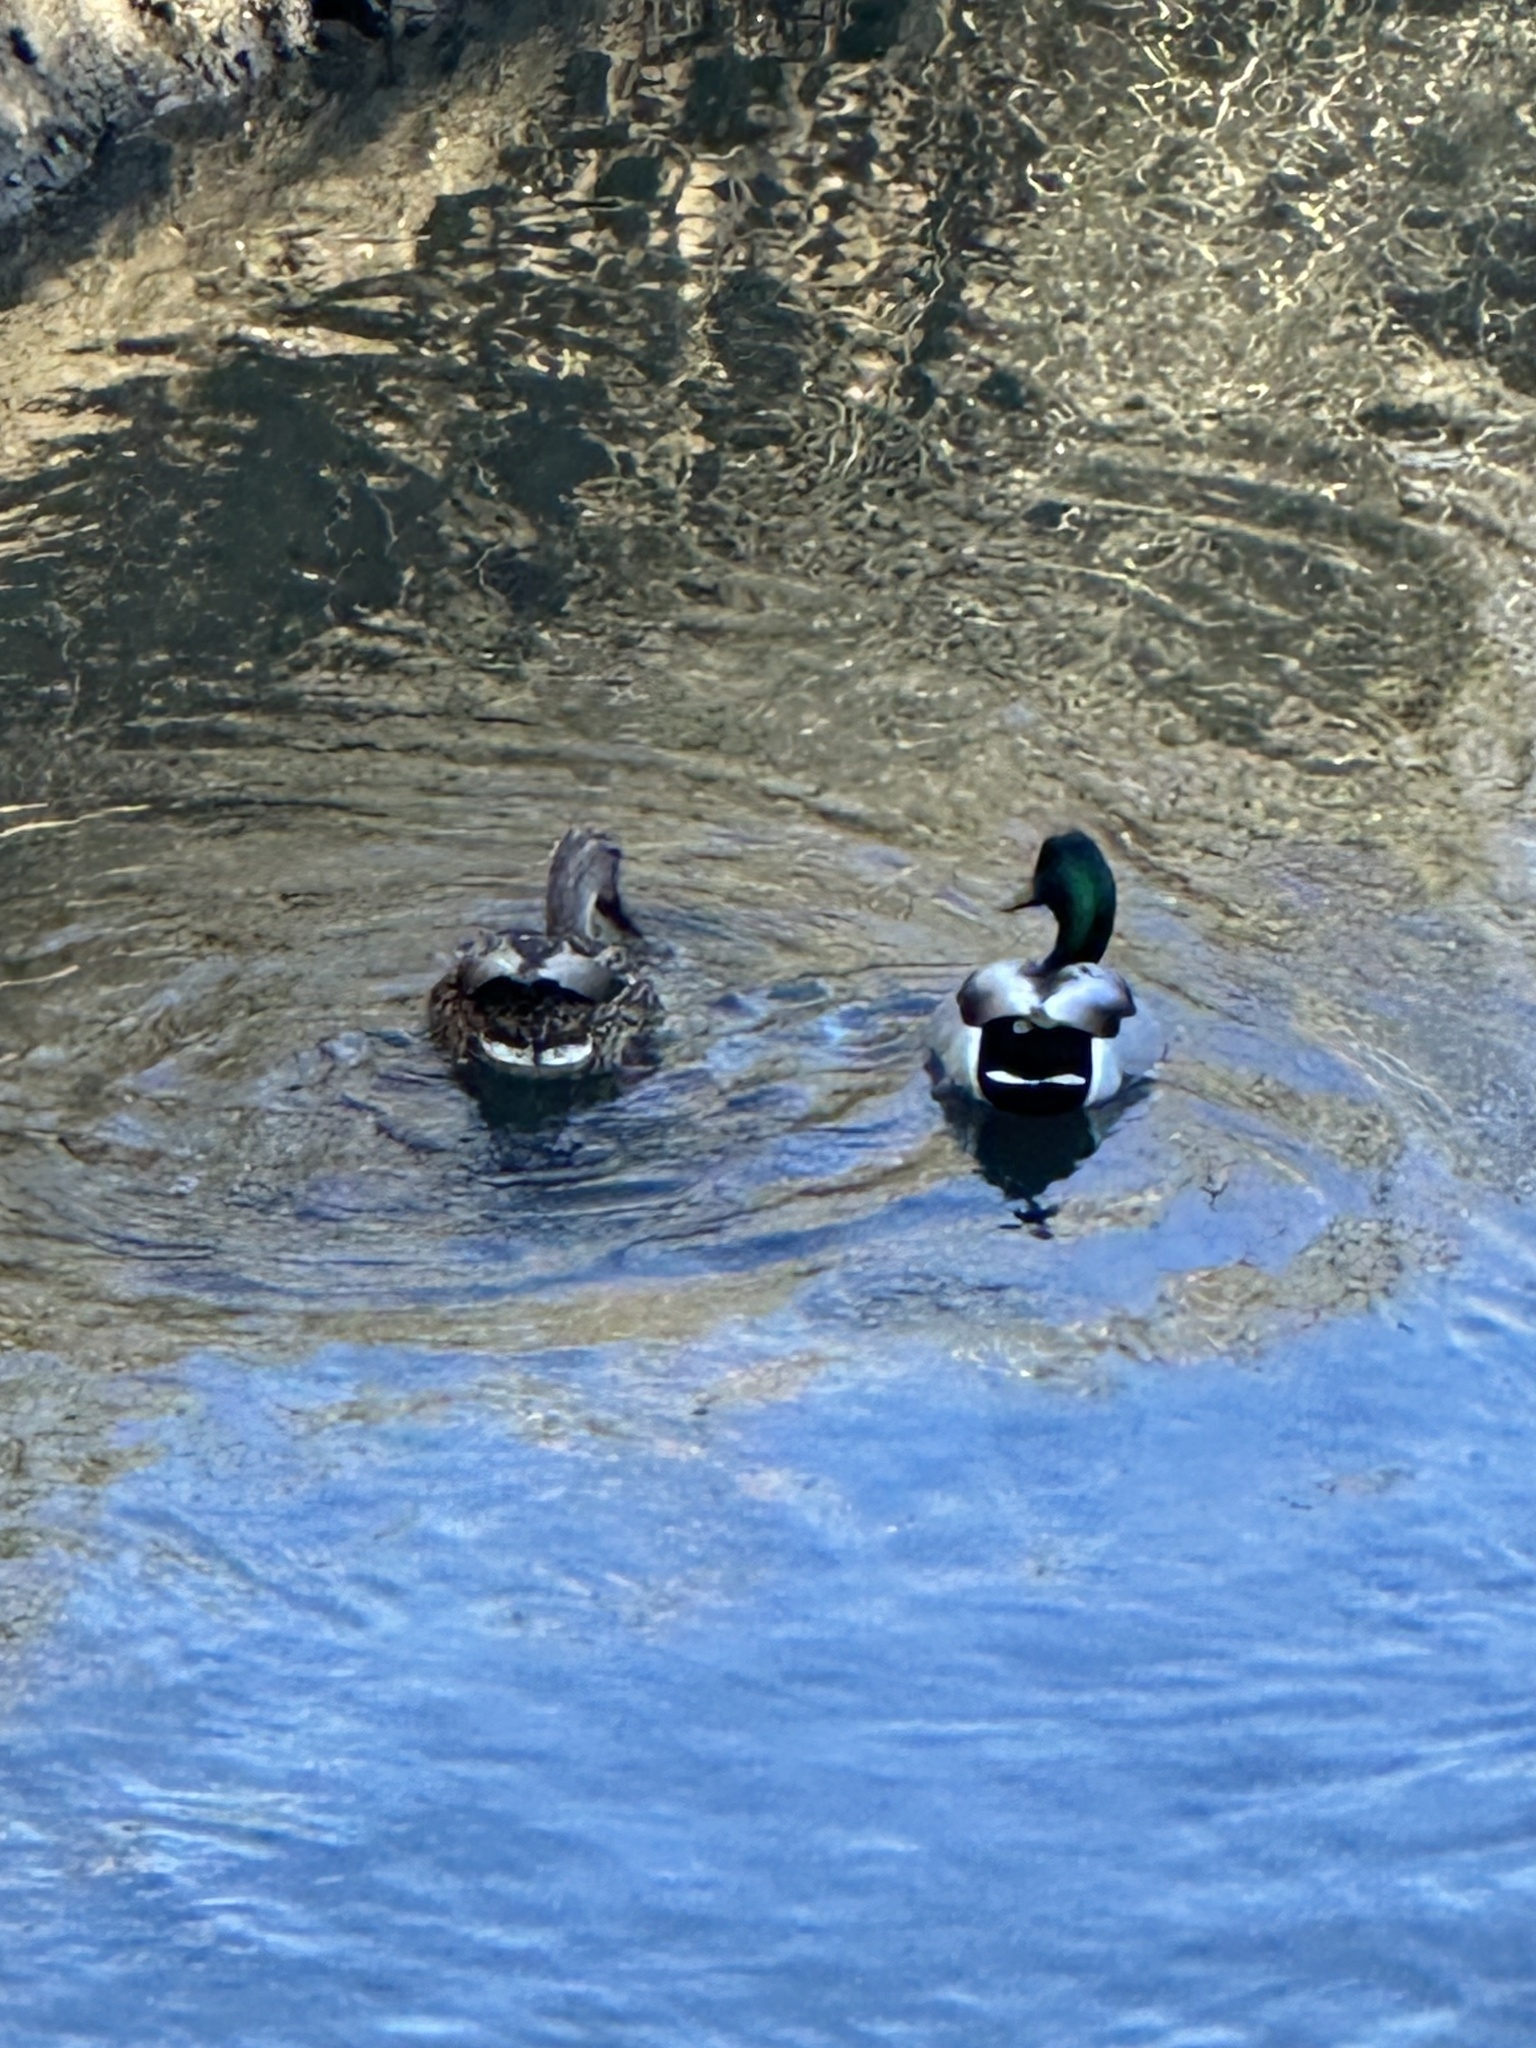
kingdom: Animalia
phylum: Chordata
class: Aves
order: Anseriformes
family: Anatidae
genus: Anas
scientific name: Anas platyrhynchos
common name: Mallard
